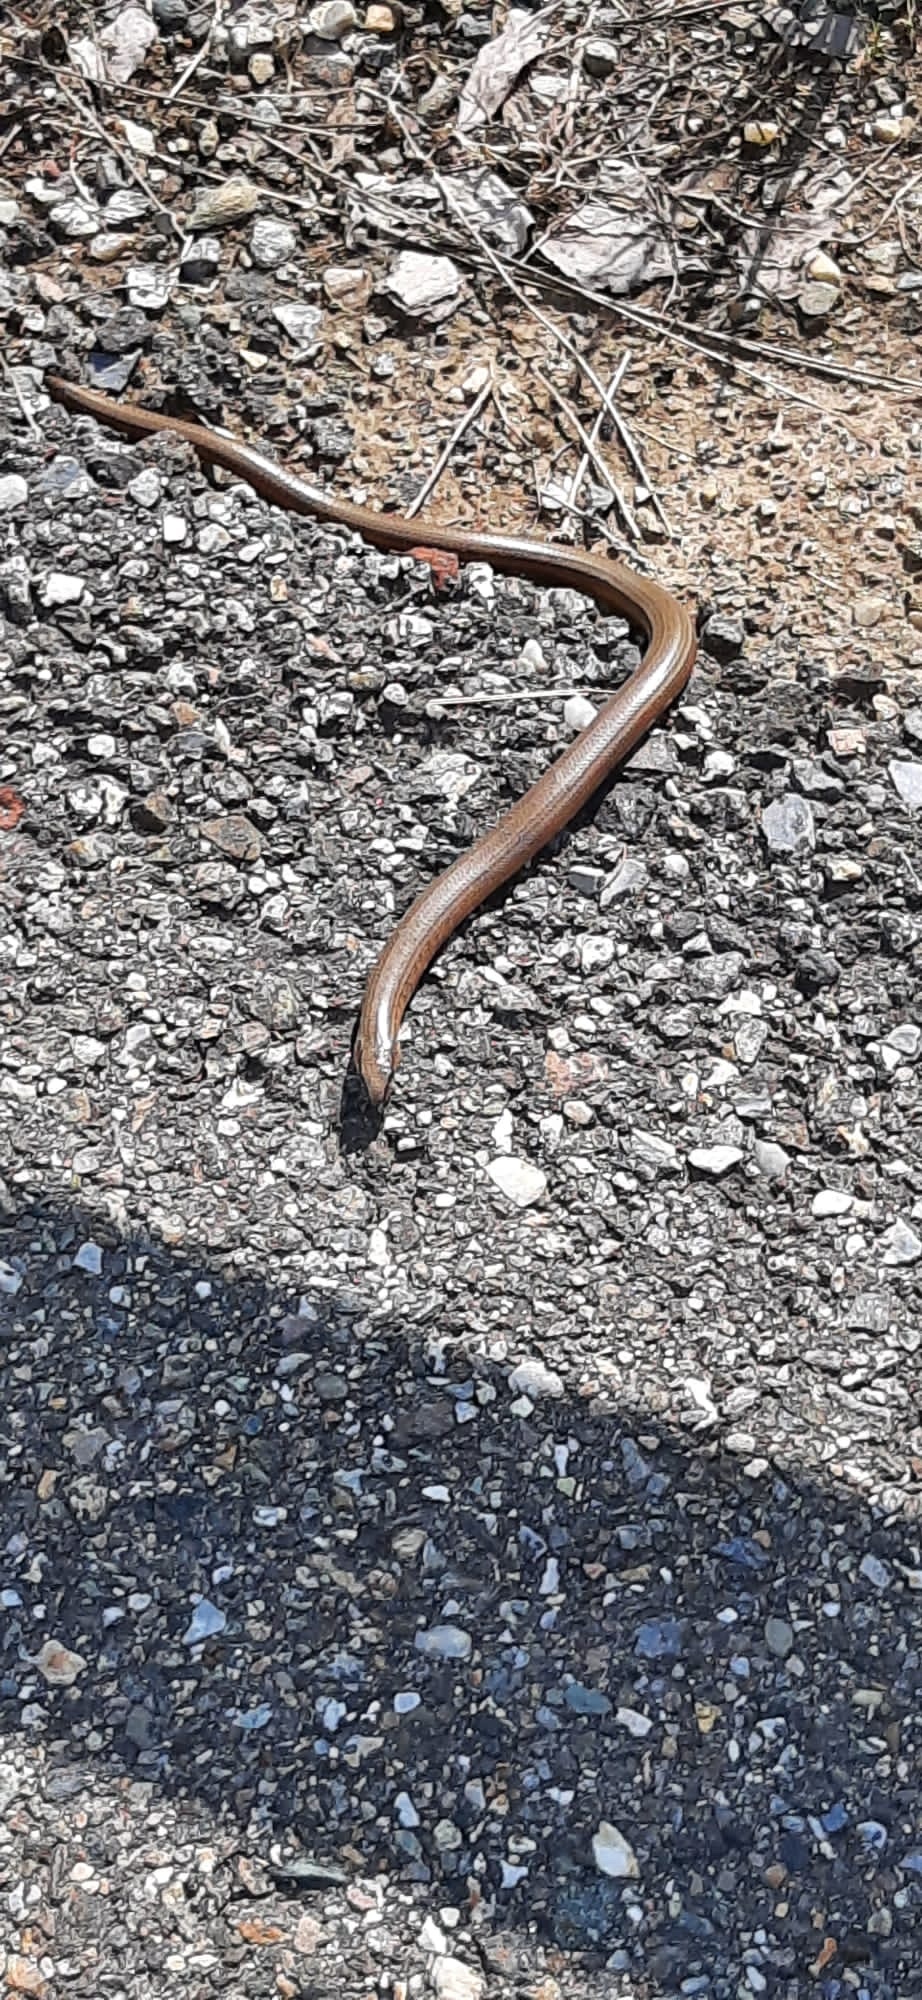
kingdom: Animalia
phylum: Chordata
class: Squamata
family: Anguidae
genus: Anguis
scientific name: Anguis fragilis
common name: Slow worm
